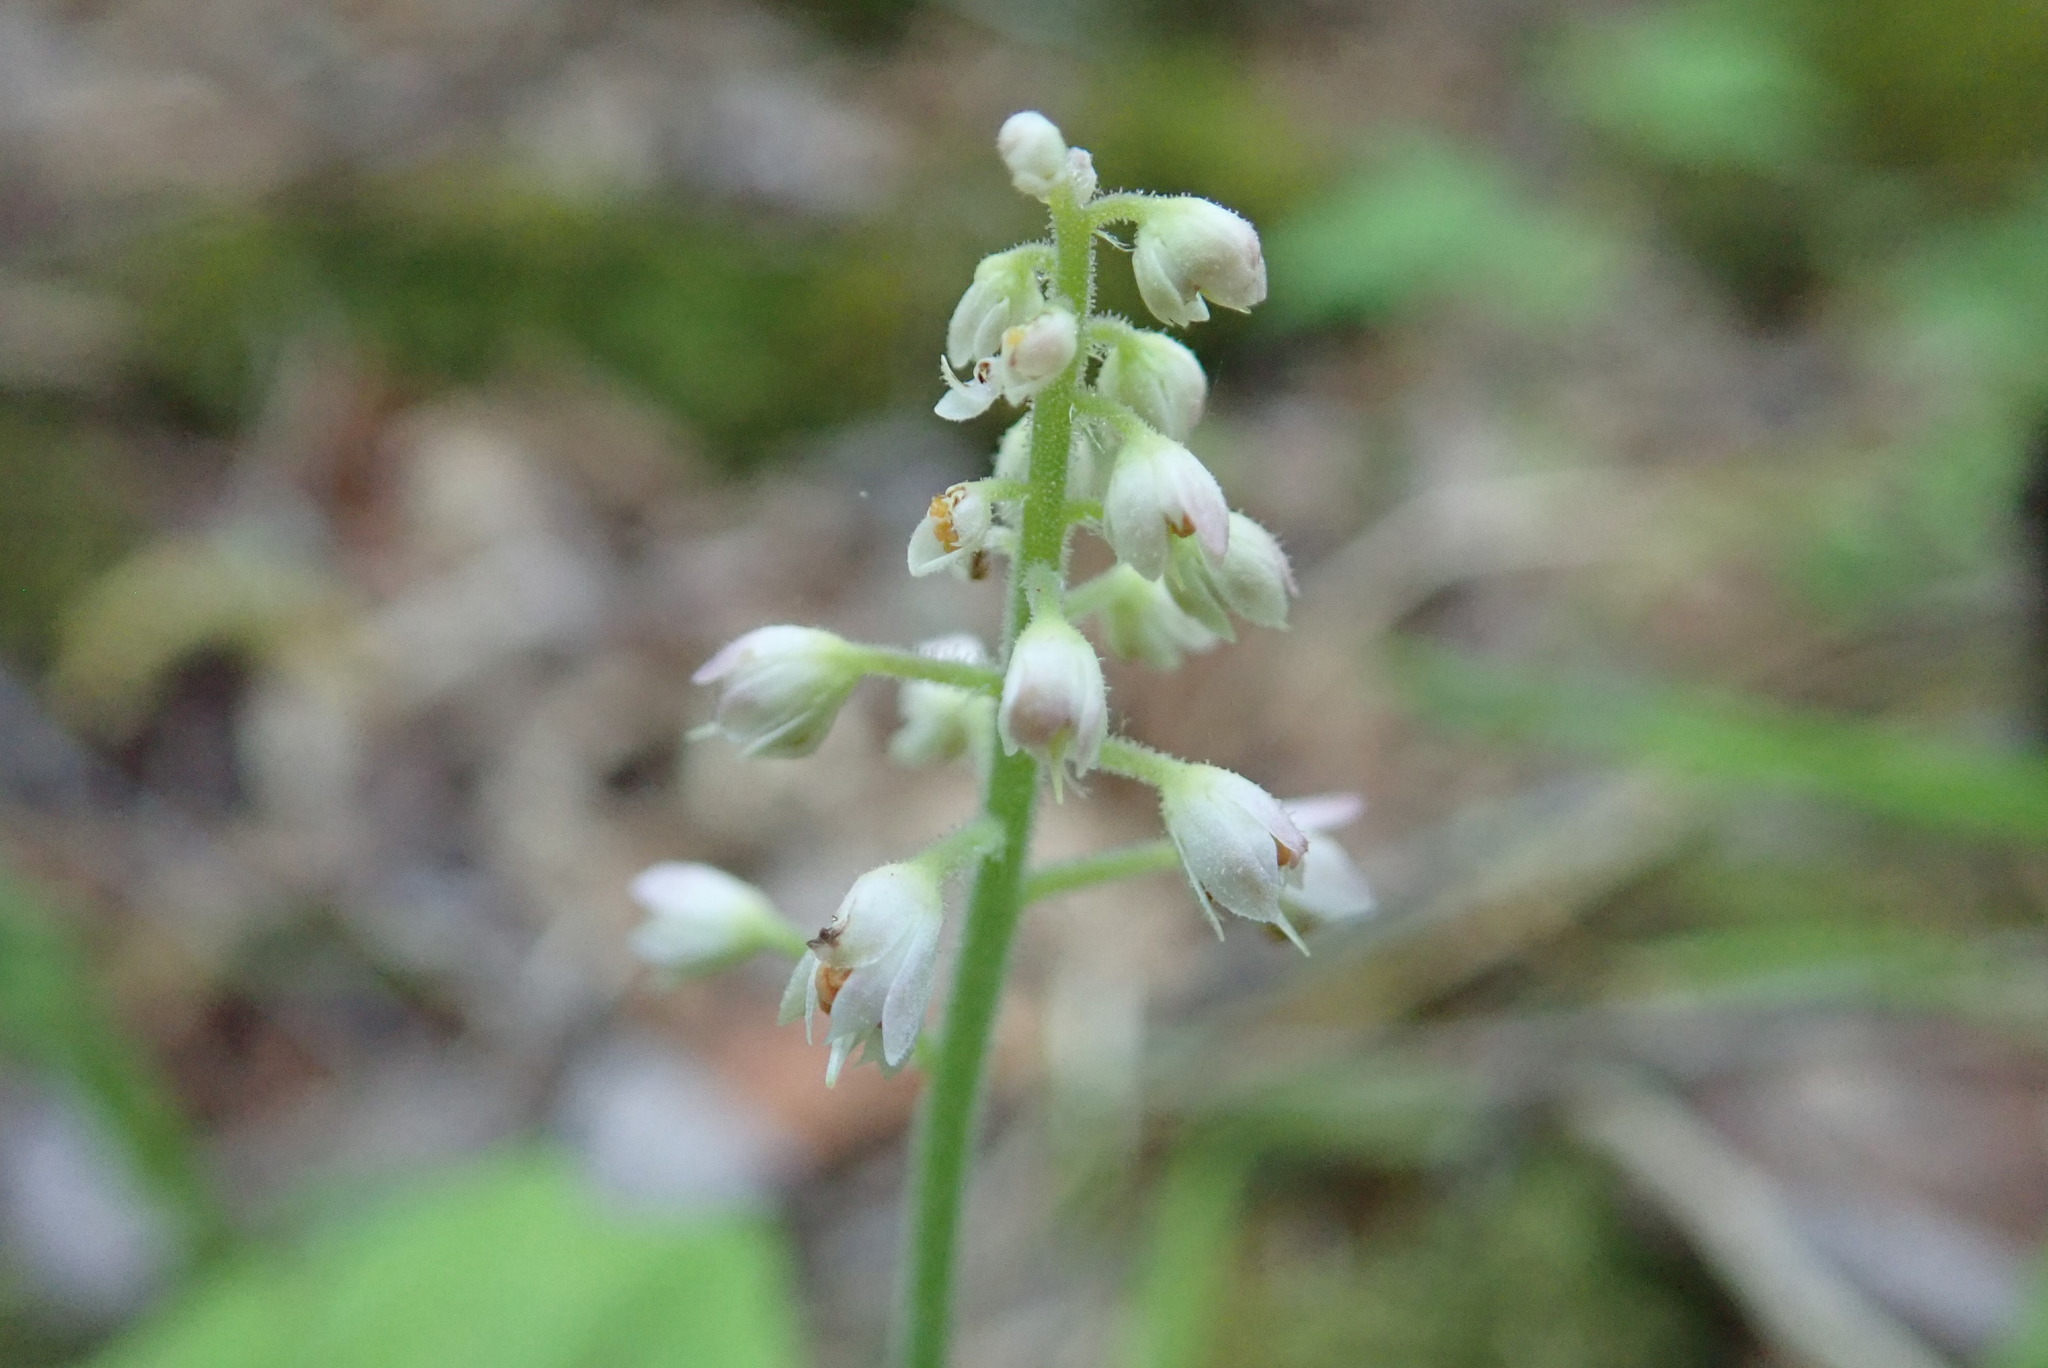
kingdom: Plantae
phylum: Tracheophyta
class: Magnoliopsida
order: Saxifragales
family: Saxifragaceae
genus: Tiarella
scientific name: Tiarella stolonifera
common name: Stoloniferous foamflower
